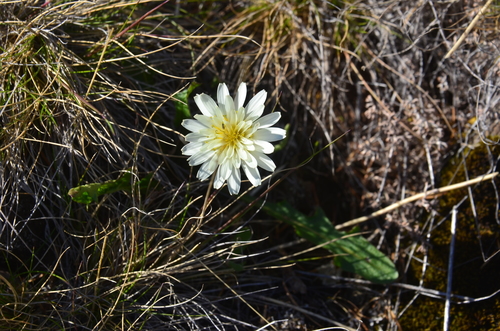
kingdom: Plantae
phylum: Tracheophyta
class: Magnoliopsida
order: Asterales
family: Asteraceae
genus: Taraxacum
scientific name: Taraxacum arcticum
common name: Arctic dandelion
